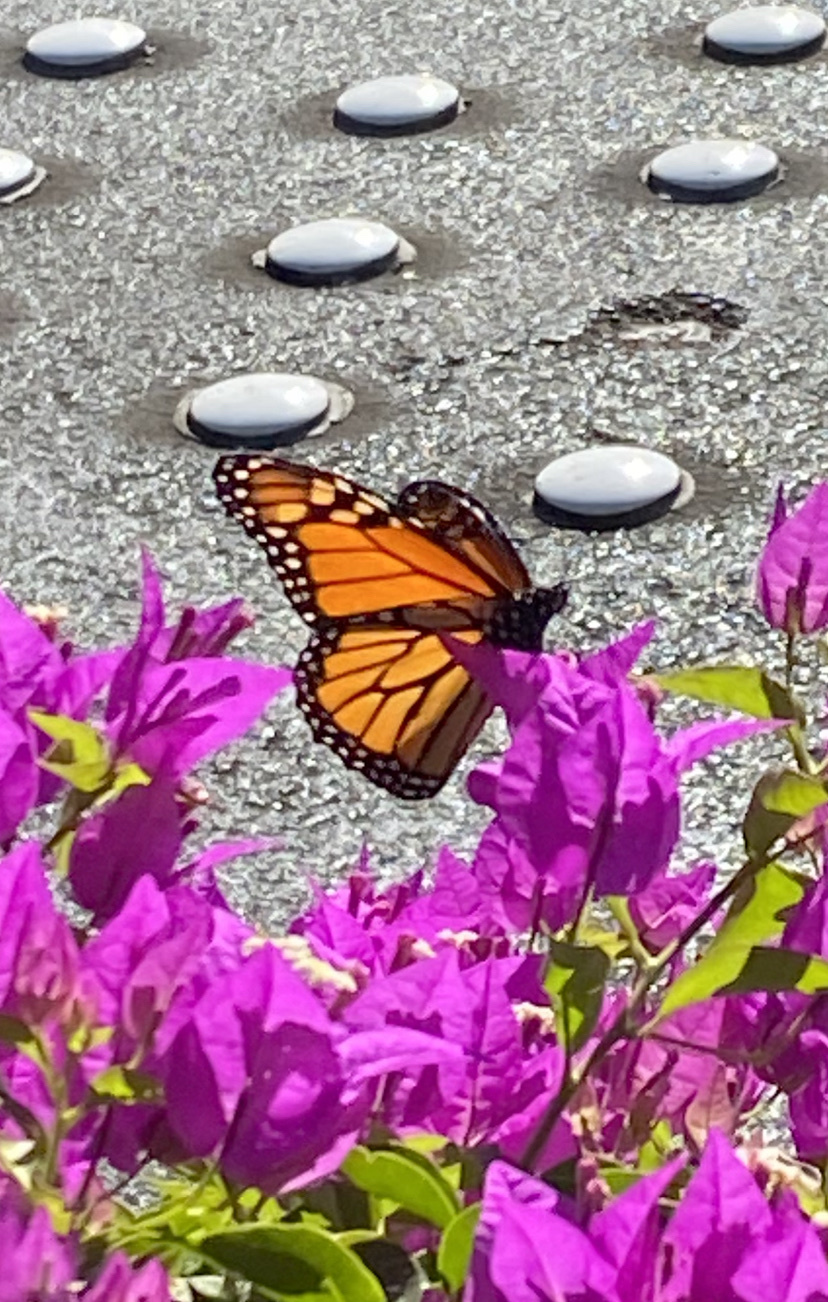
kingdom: Animalia
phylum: Arthropoda
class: Insecta
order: Lepidoptera
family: Nymphalidae
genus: Danaus
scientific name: Danaus plexippus
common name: Monarch
